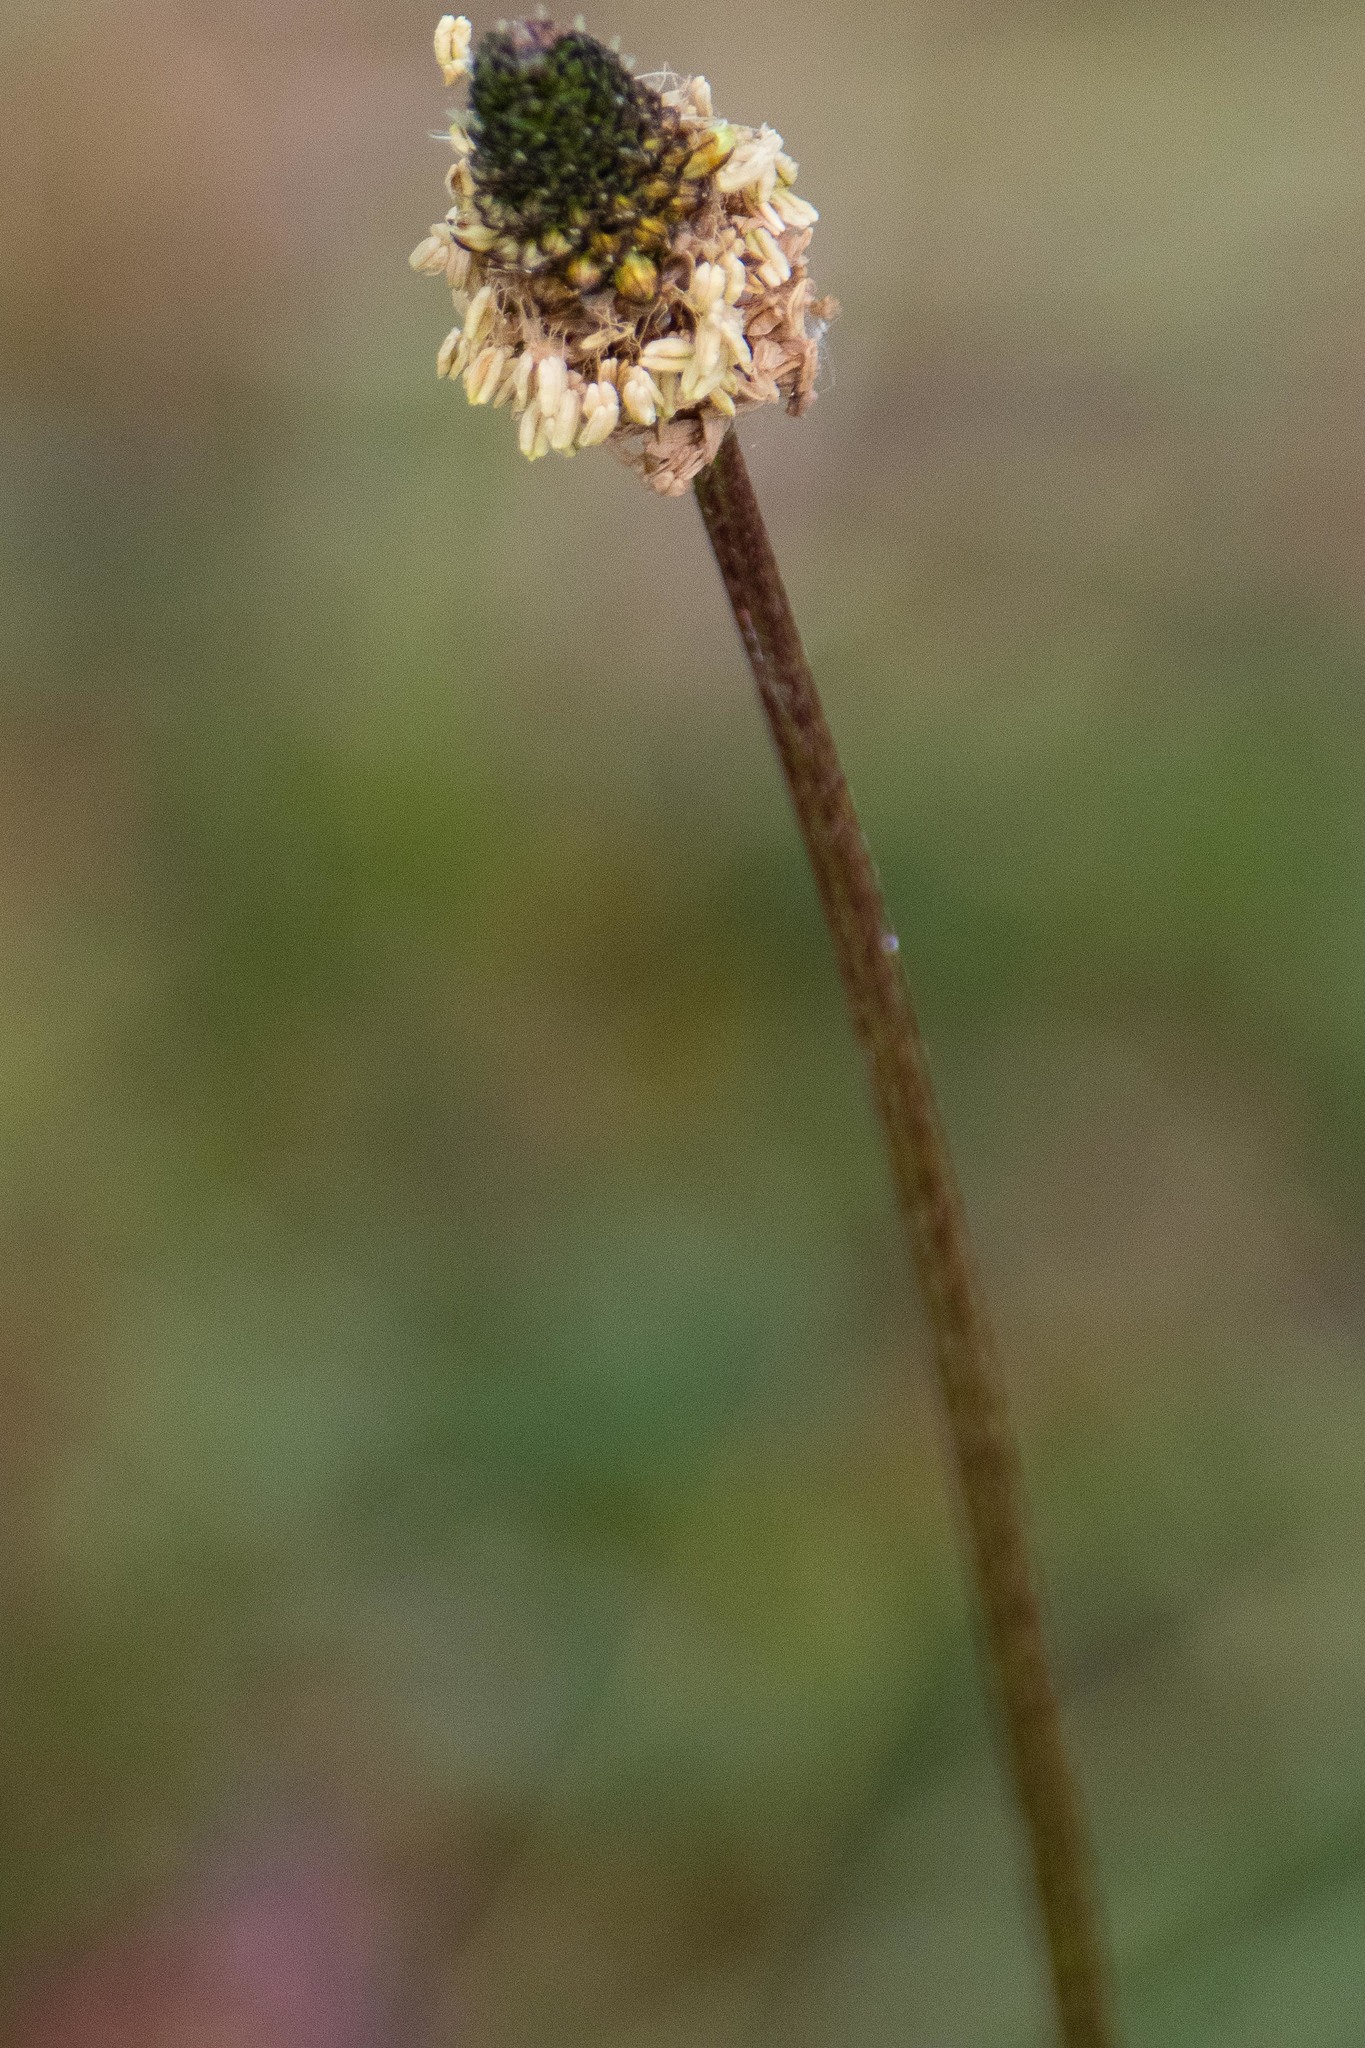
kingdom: Plantae
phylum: Tracheophyta
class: Magnoliopsida
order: Lamiales
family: Plantaginaceae
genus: Plantago
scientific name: Plantago lanceolata
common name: Ribwort plantain
